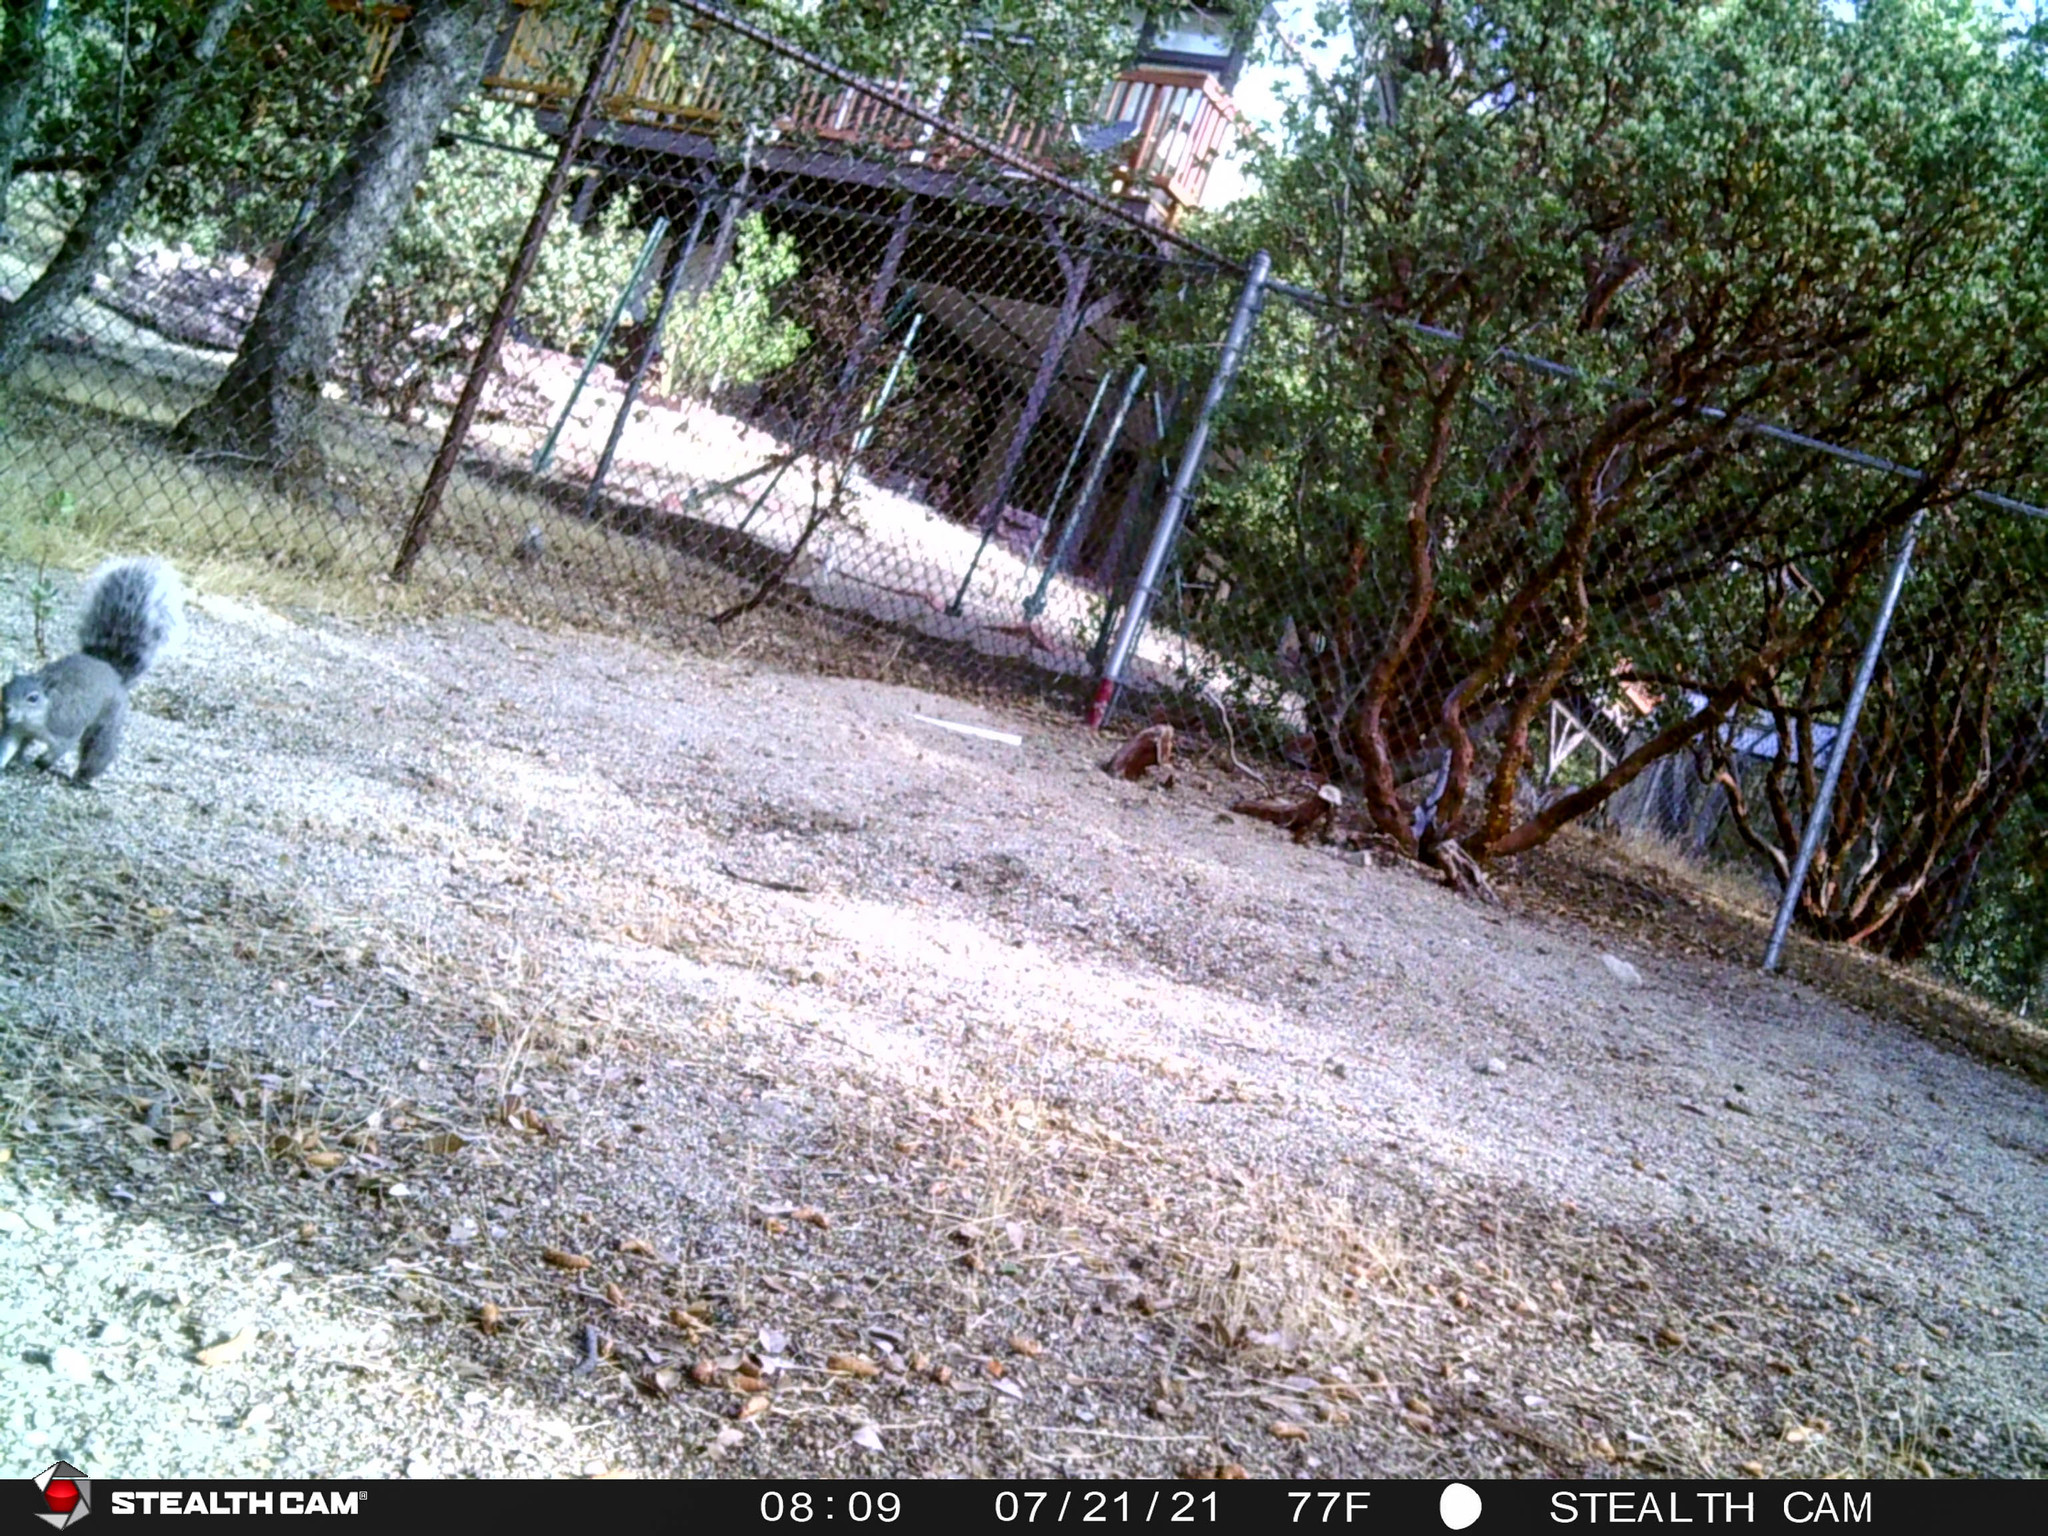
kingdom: Animalia
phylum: Chordata
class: Mammalia
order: Rodentia
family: Sciuridae
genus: Sciurus
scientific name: Sciurus griseus
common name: Western gray squirrel
